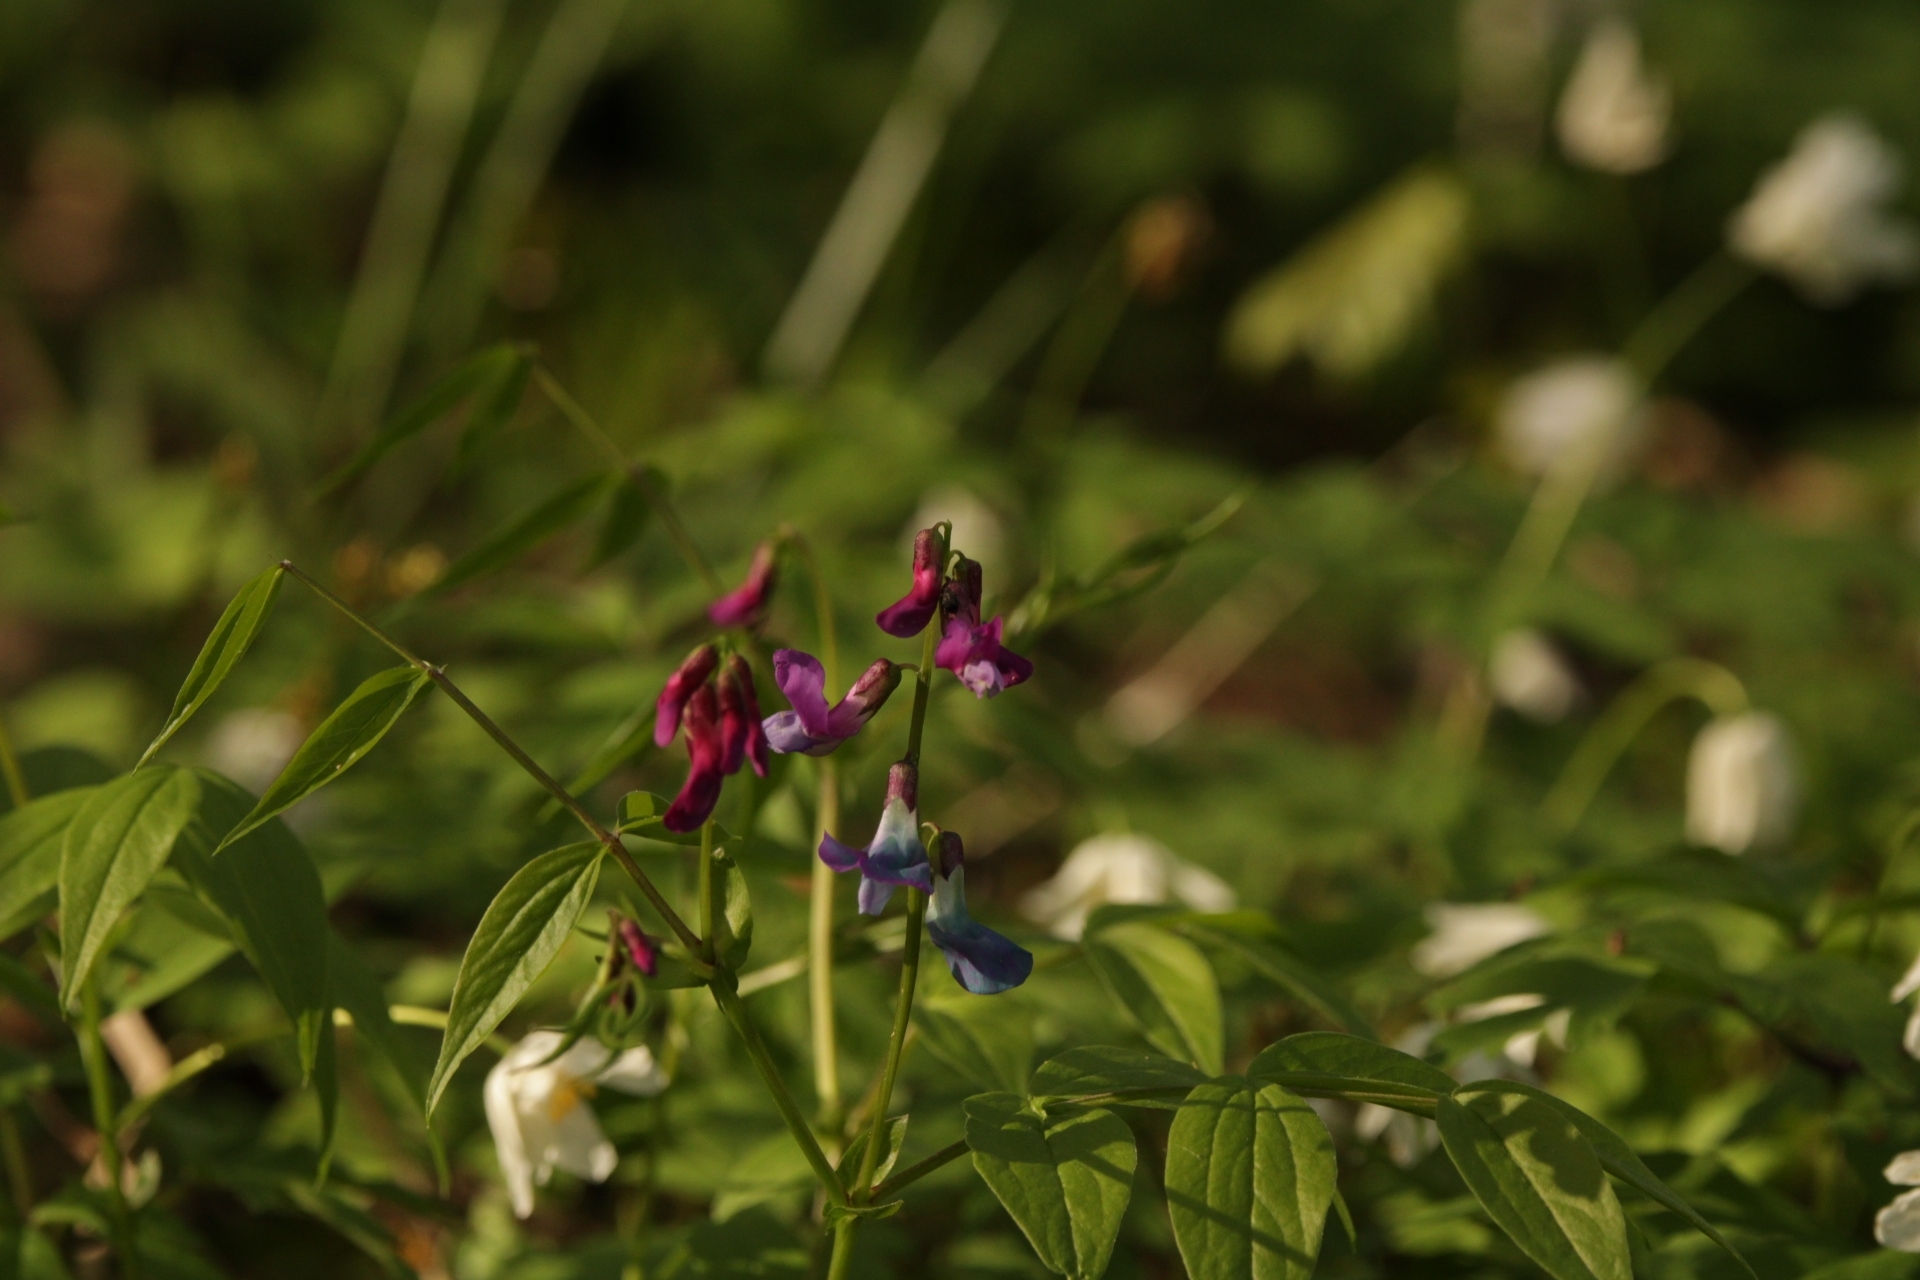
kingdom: Plantae
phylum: Tracheophyta
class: Magnoliopsida
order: Fabales
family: Fabaceae
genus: Lathyrus
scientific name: Lathyrus vernus
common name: Spring pea
